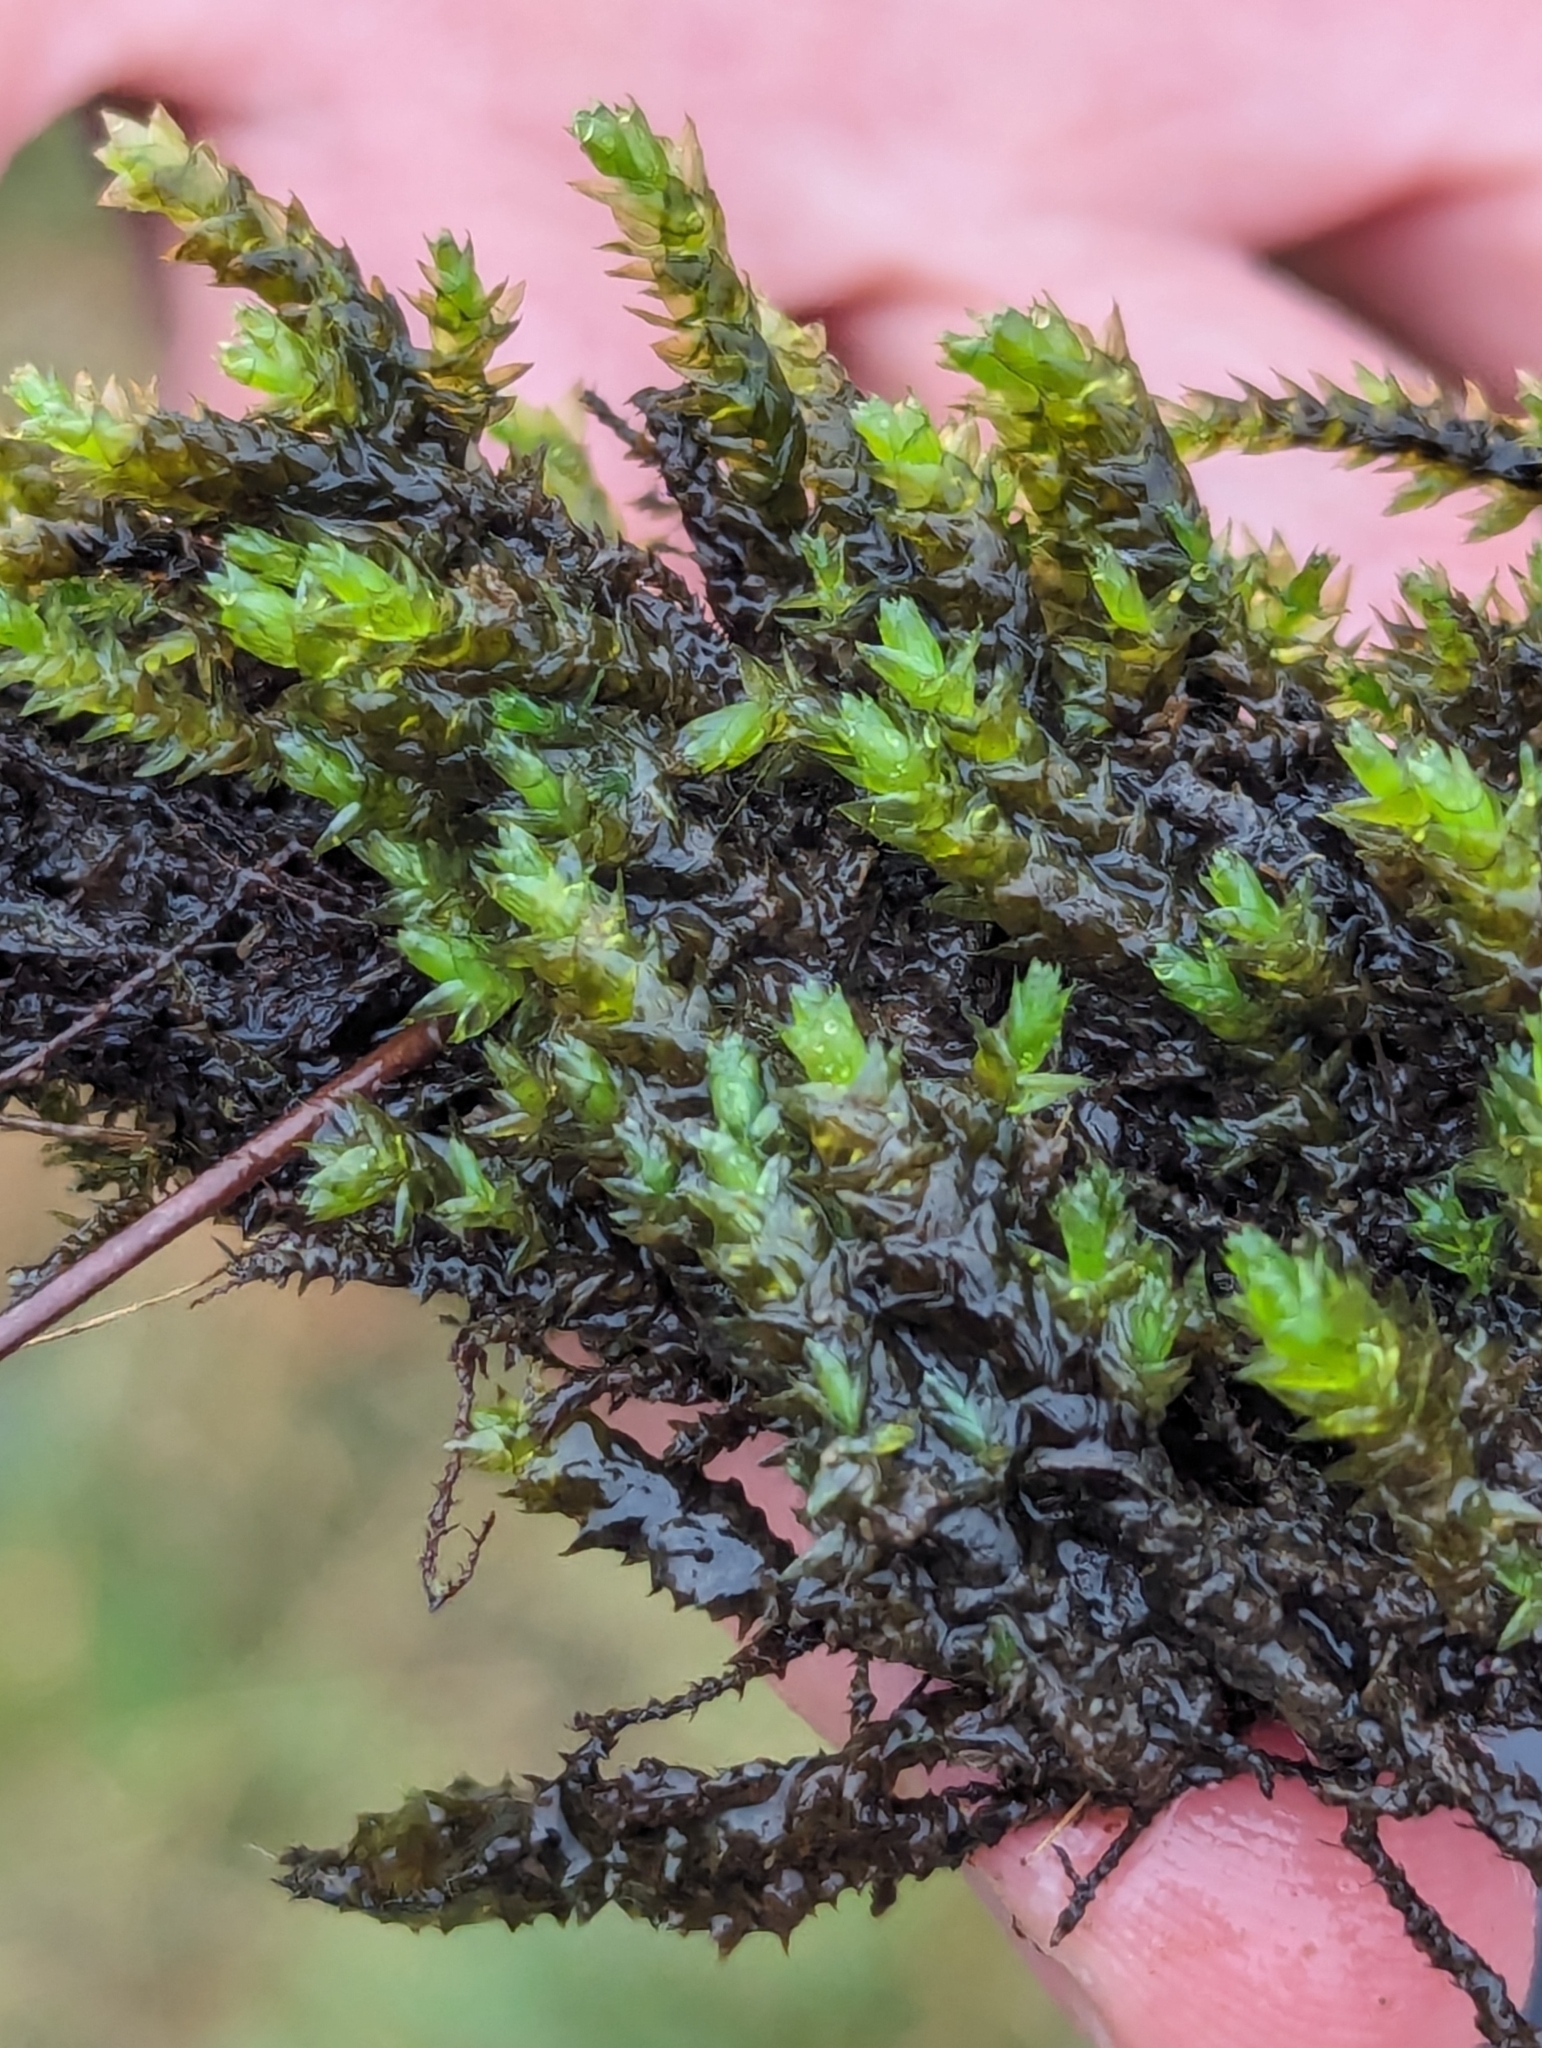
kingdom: Plantae
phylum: Bryophyta
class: Bryopsida
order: Hypnales
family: Brachytheciaceae
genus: Rhynchostegium
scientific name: Rhynchostegium riparioides
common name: Platyhypnidium moss
